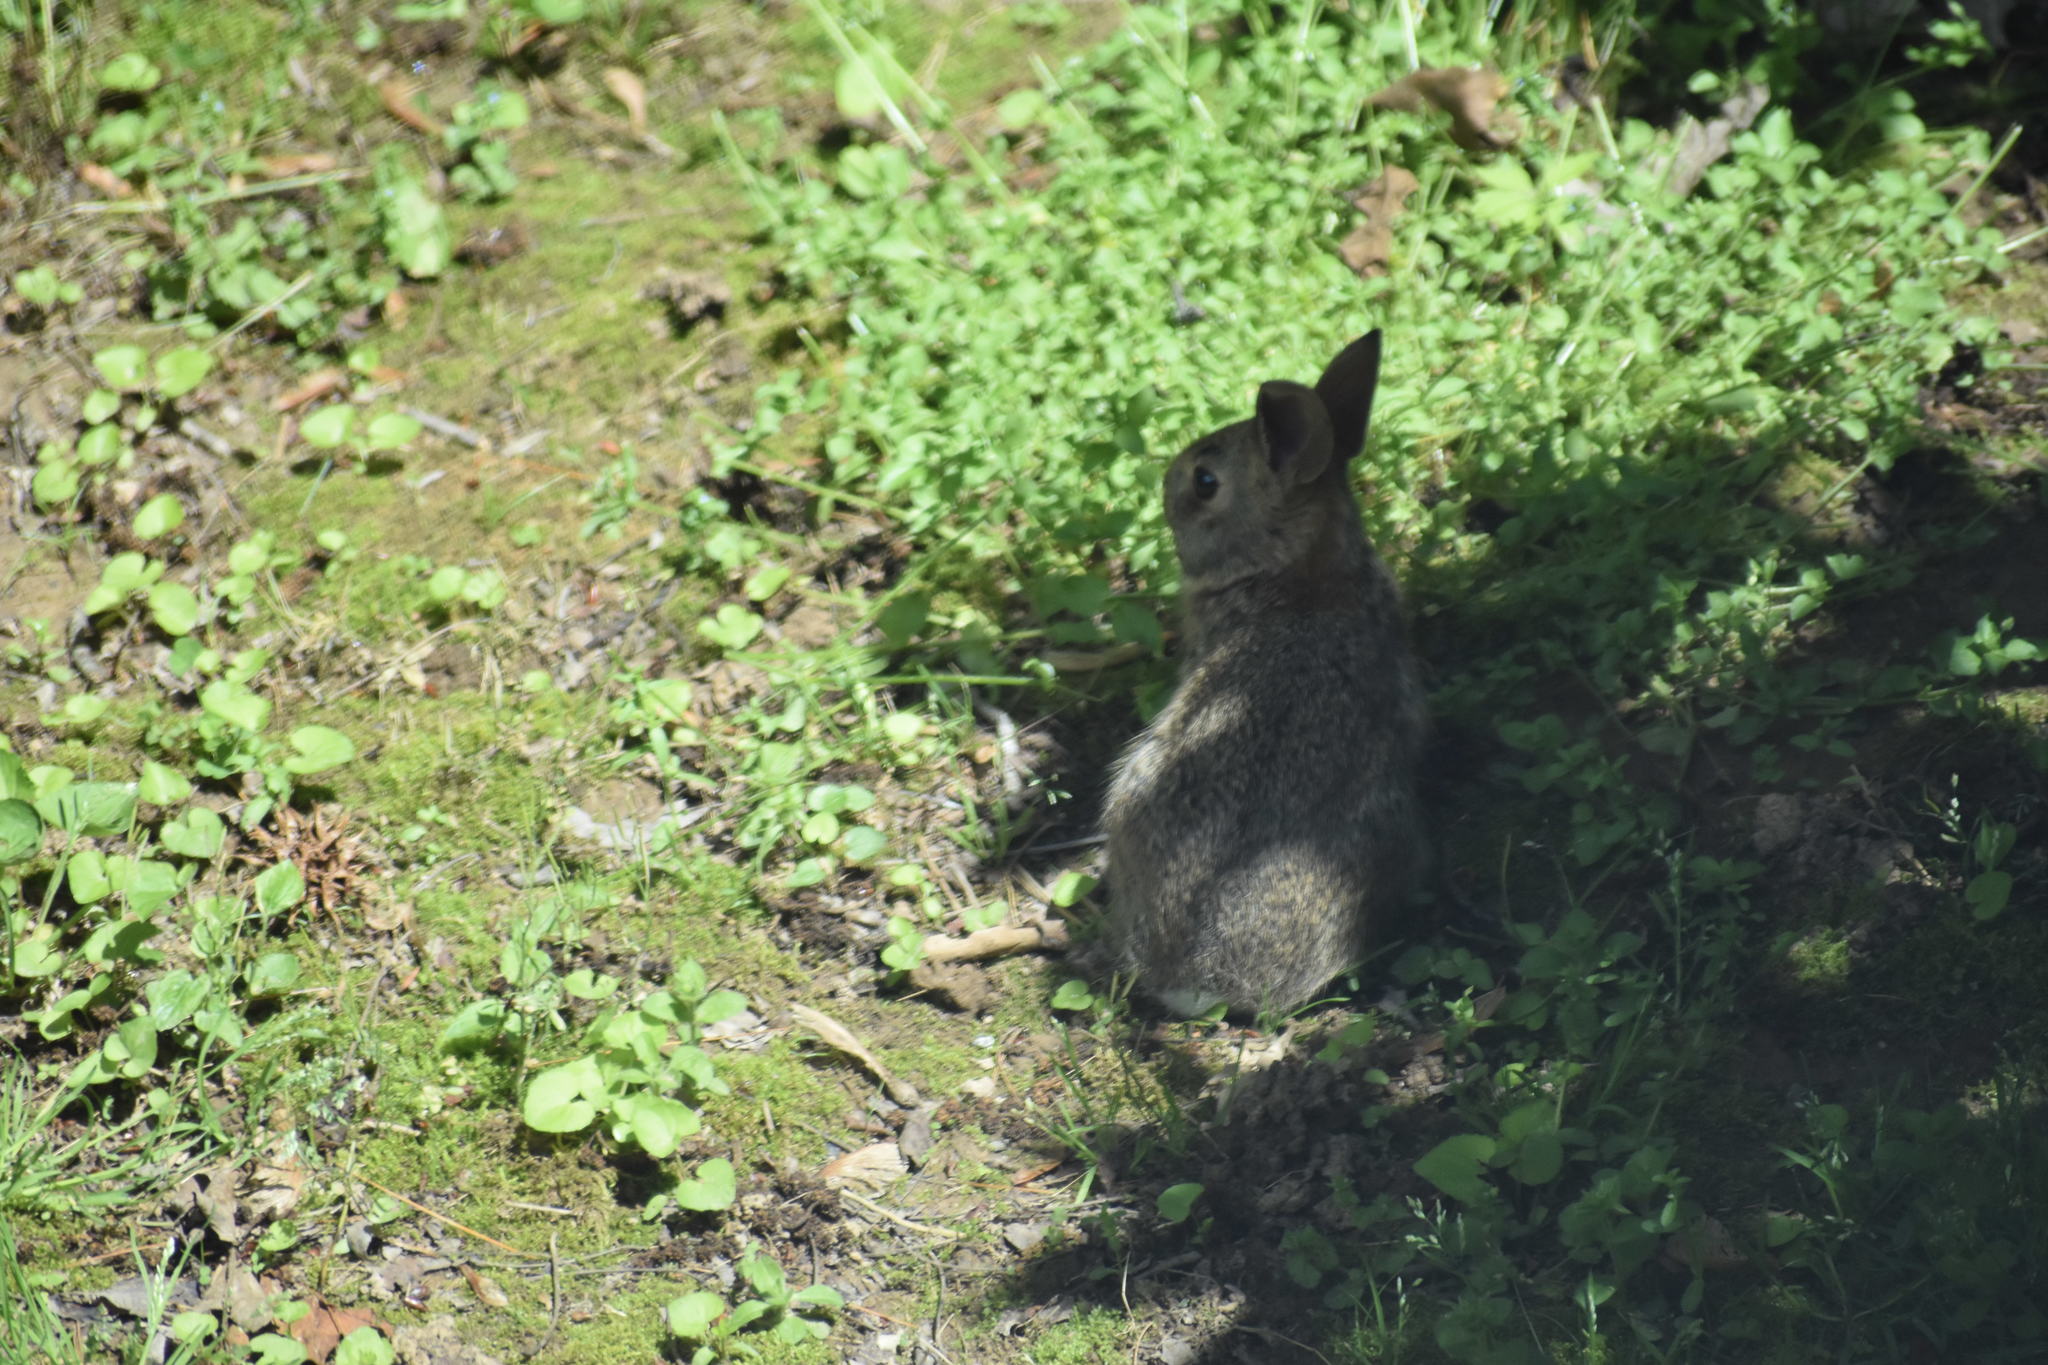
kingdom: Animalia
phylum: Chordata
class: Mammalia
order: Lagomorpha
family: Leporidae
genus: Sylvilagus
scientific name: Sylvilagus floridanus
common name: Eastern cottontail
